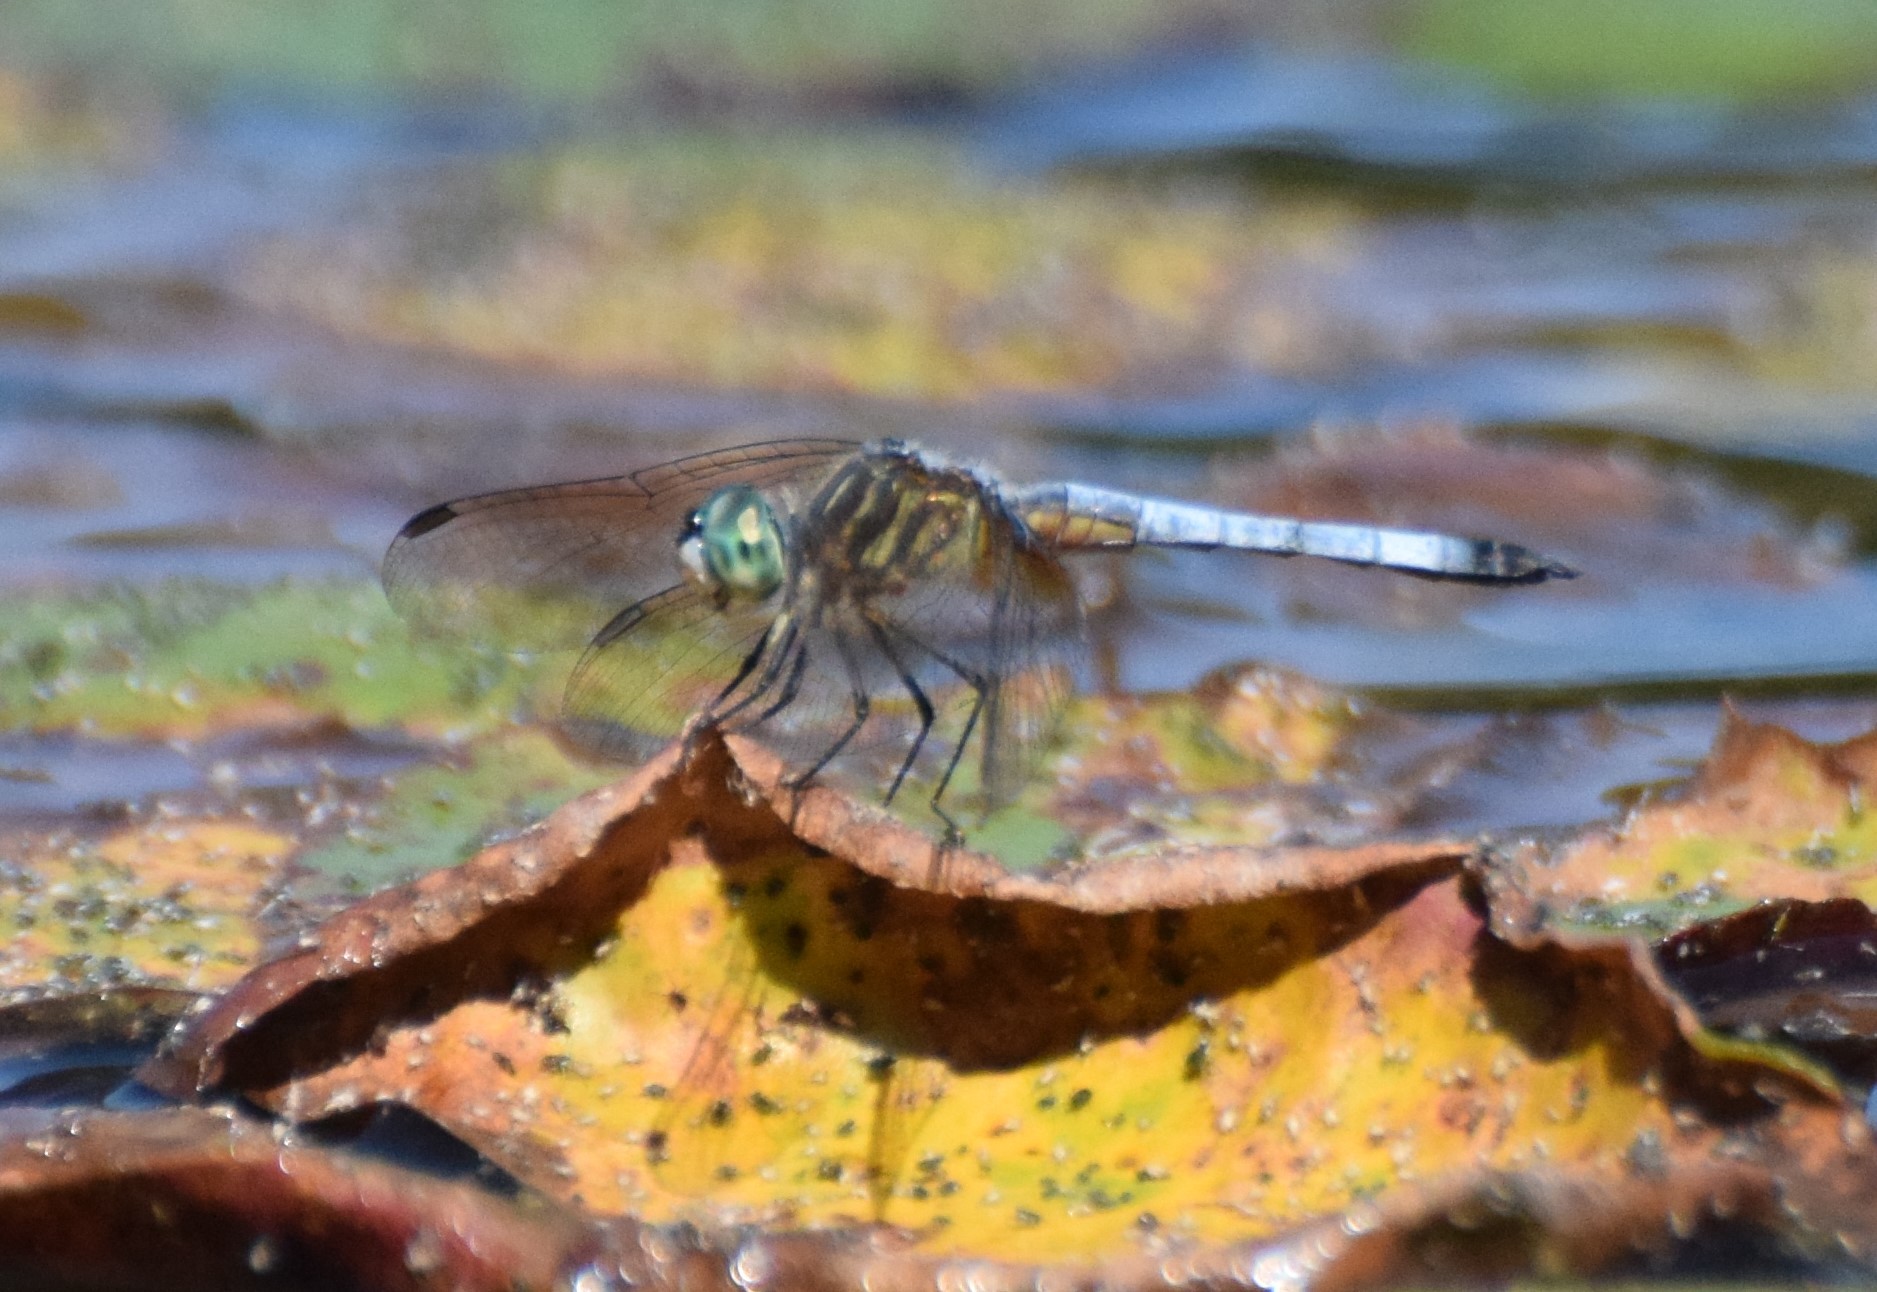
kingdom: Animalia
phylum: Arthropoda
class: Insecta
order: Odonata
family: Libellulidae
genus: Pachydiplax
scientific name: Pachydiplax longipennis
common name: Blue dasher
